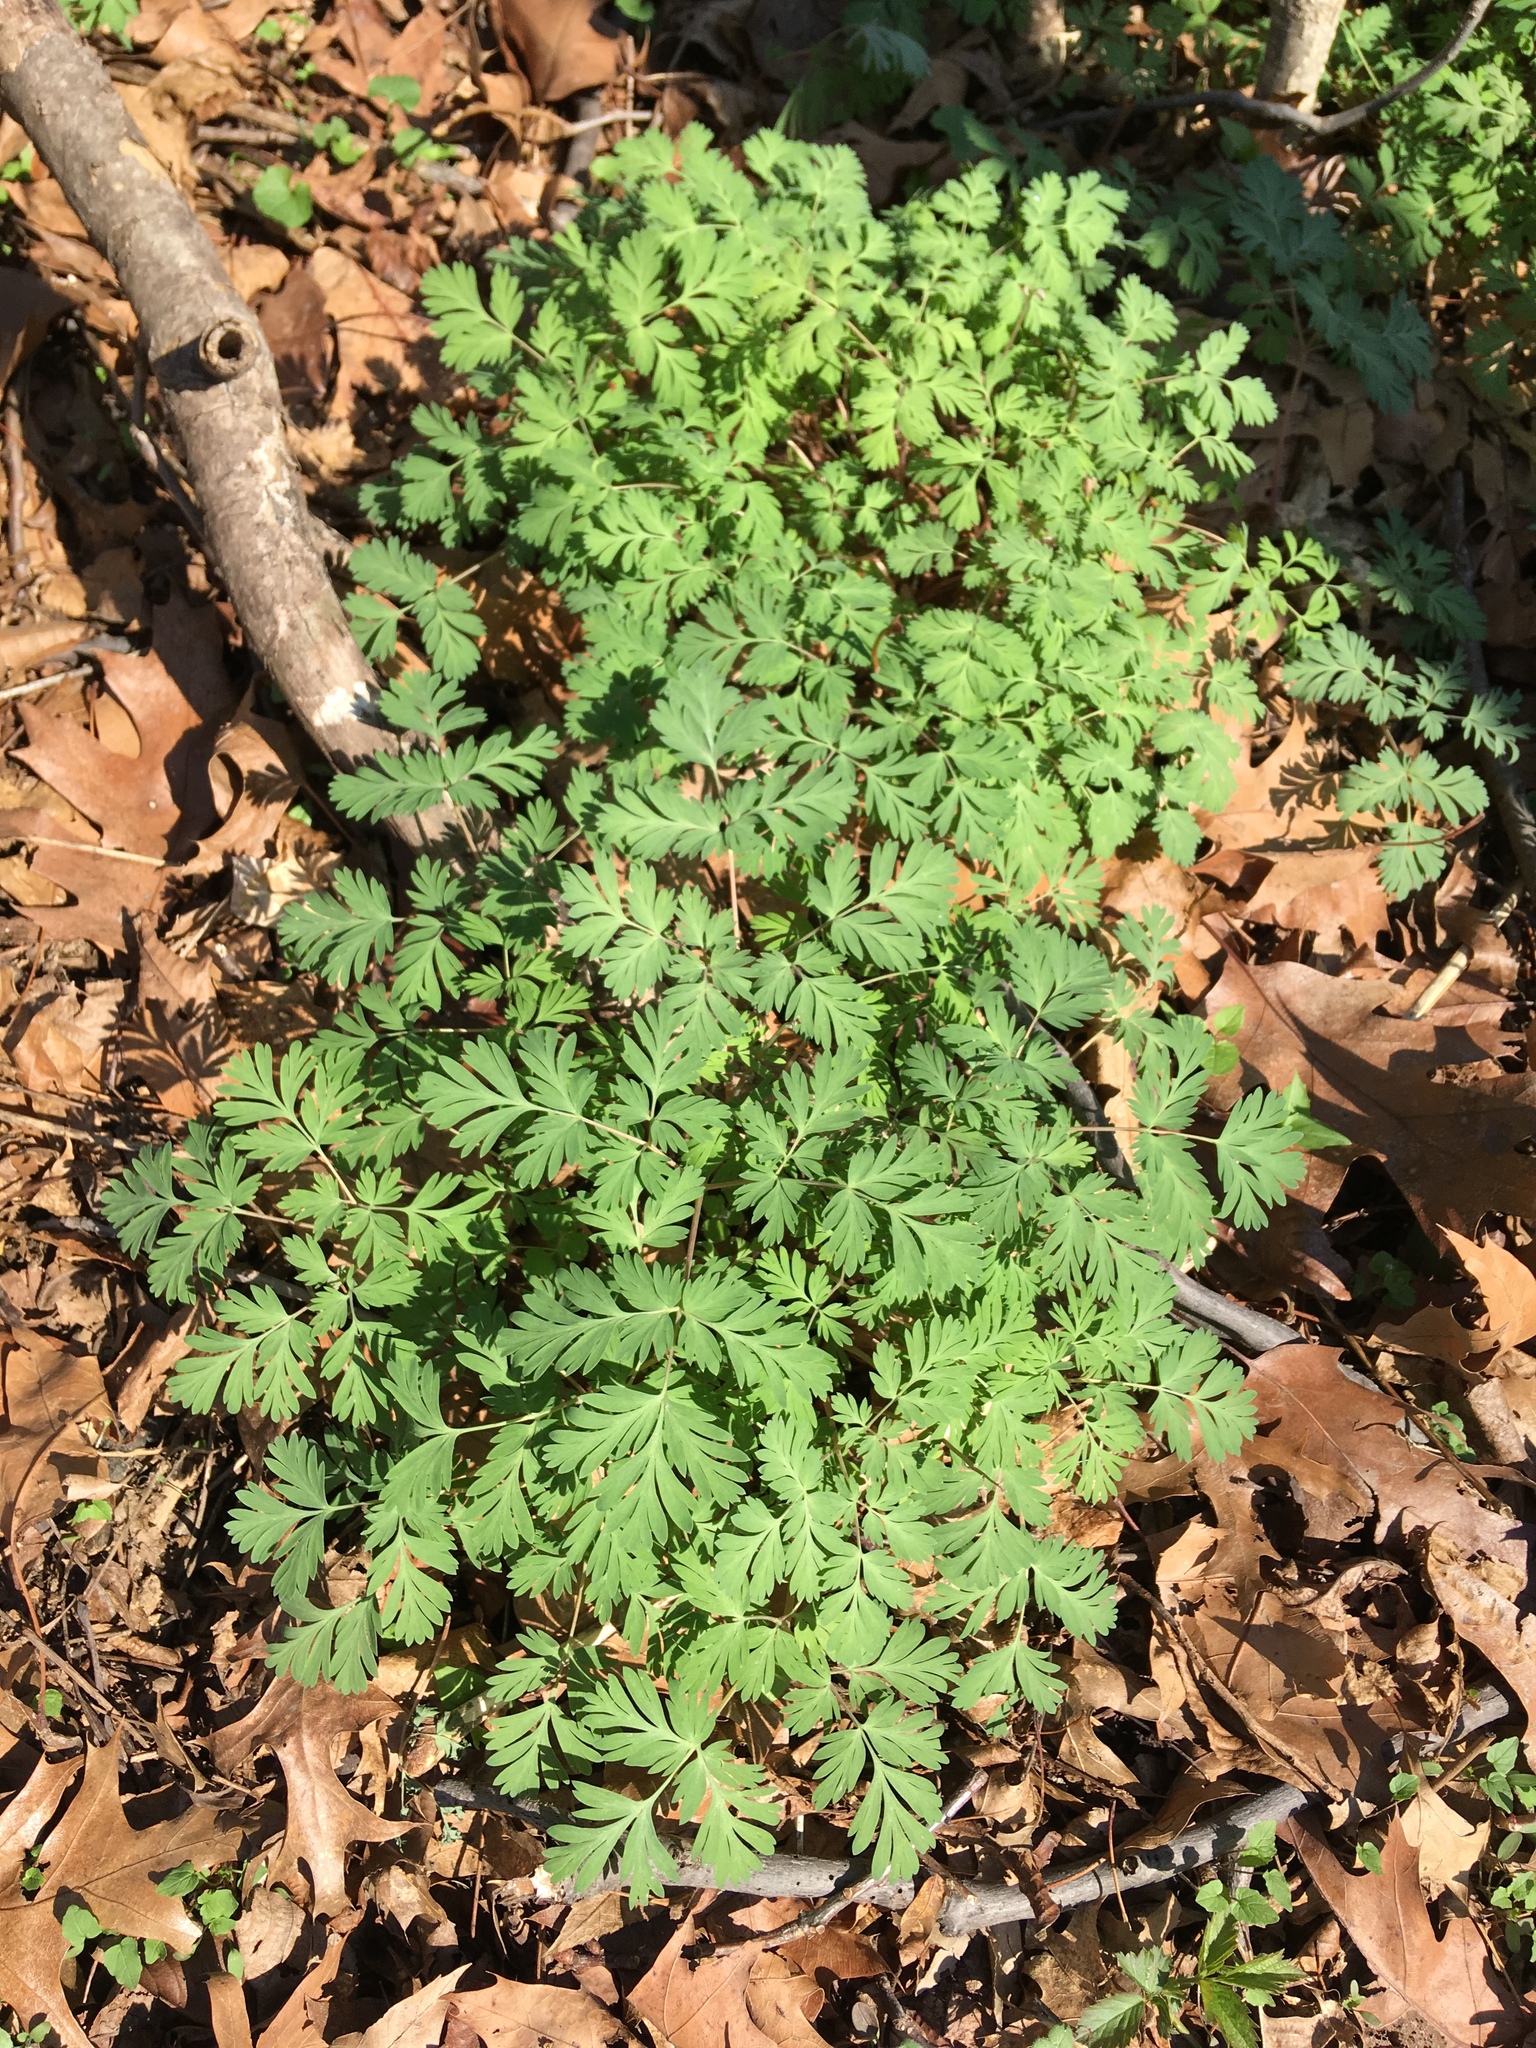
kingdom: Plantae
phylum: Tracheophyta
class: Magnoliopsida
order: Ranunculales
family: Papaveraceae
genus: Dicentra
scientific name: Dicentra cucullaria
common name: Dutchman's breeches
